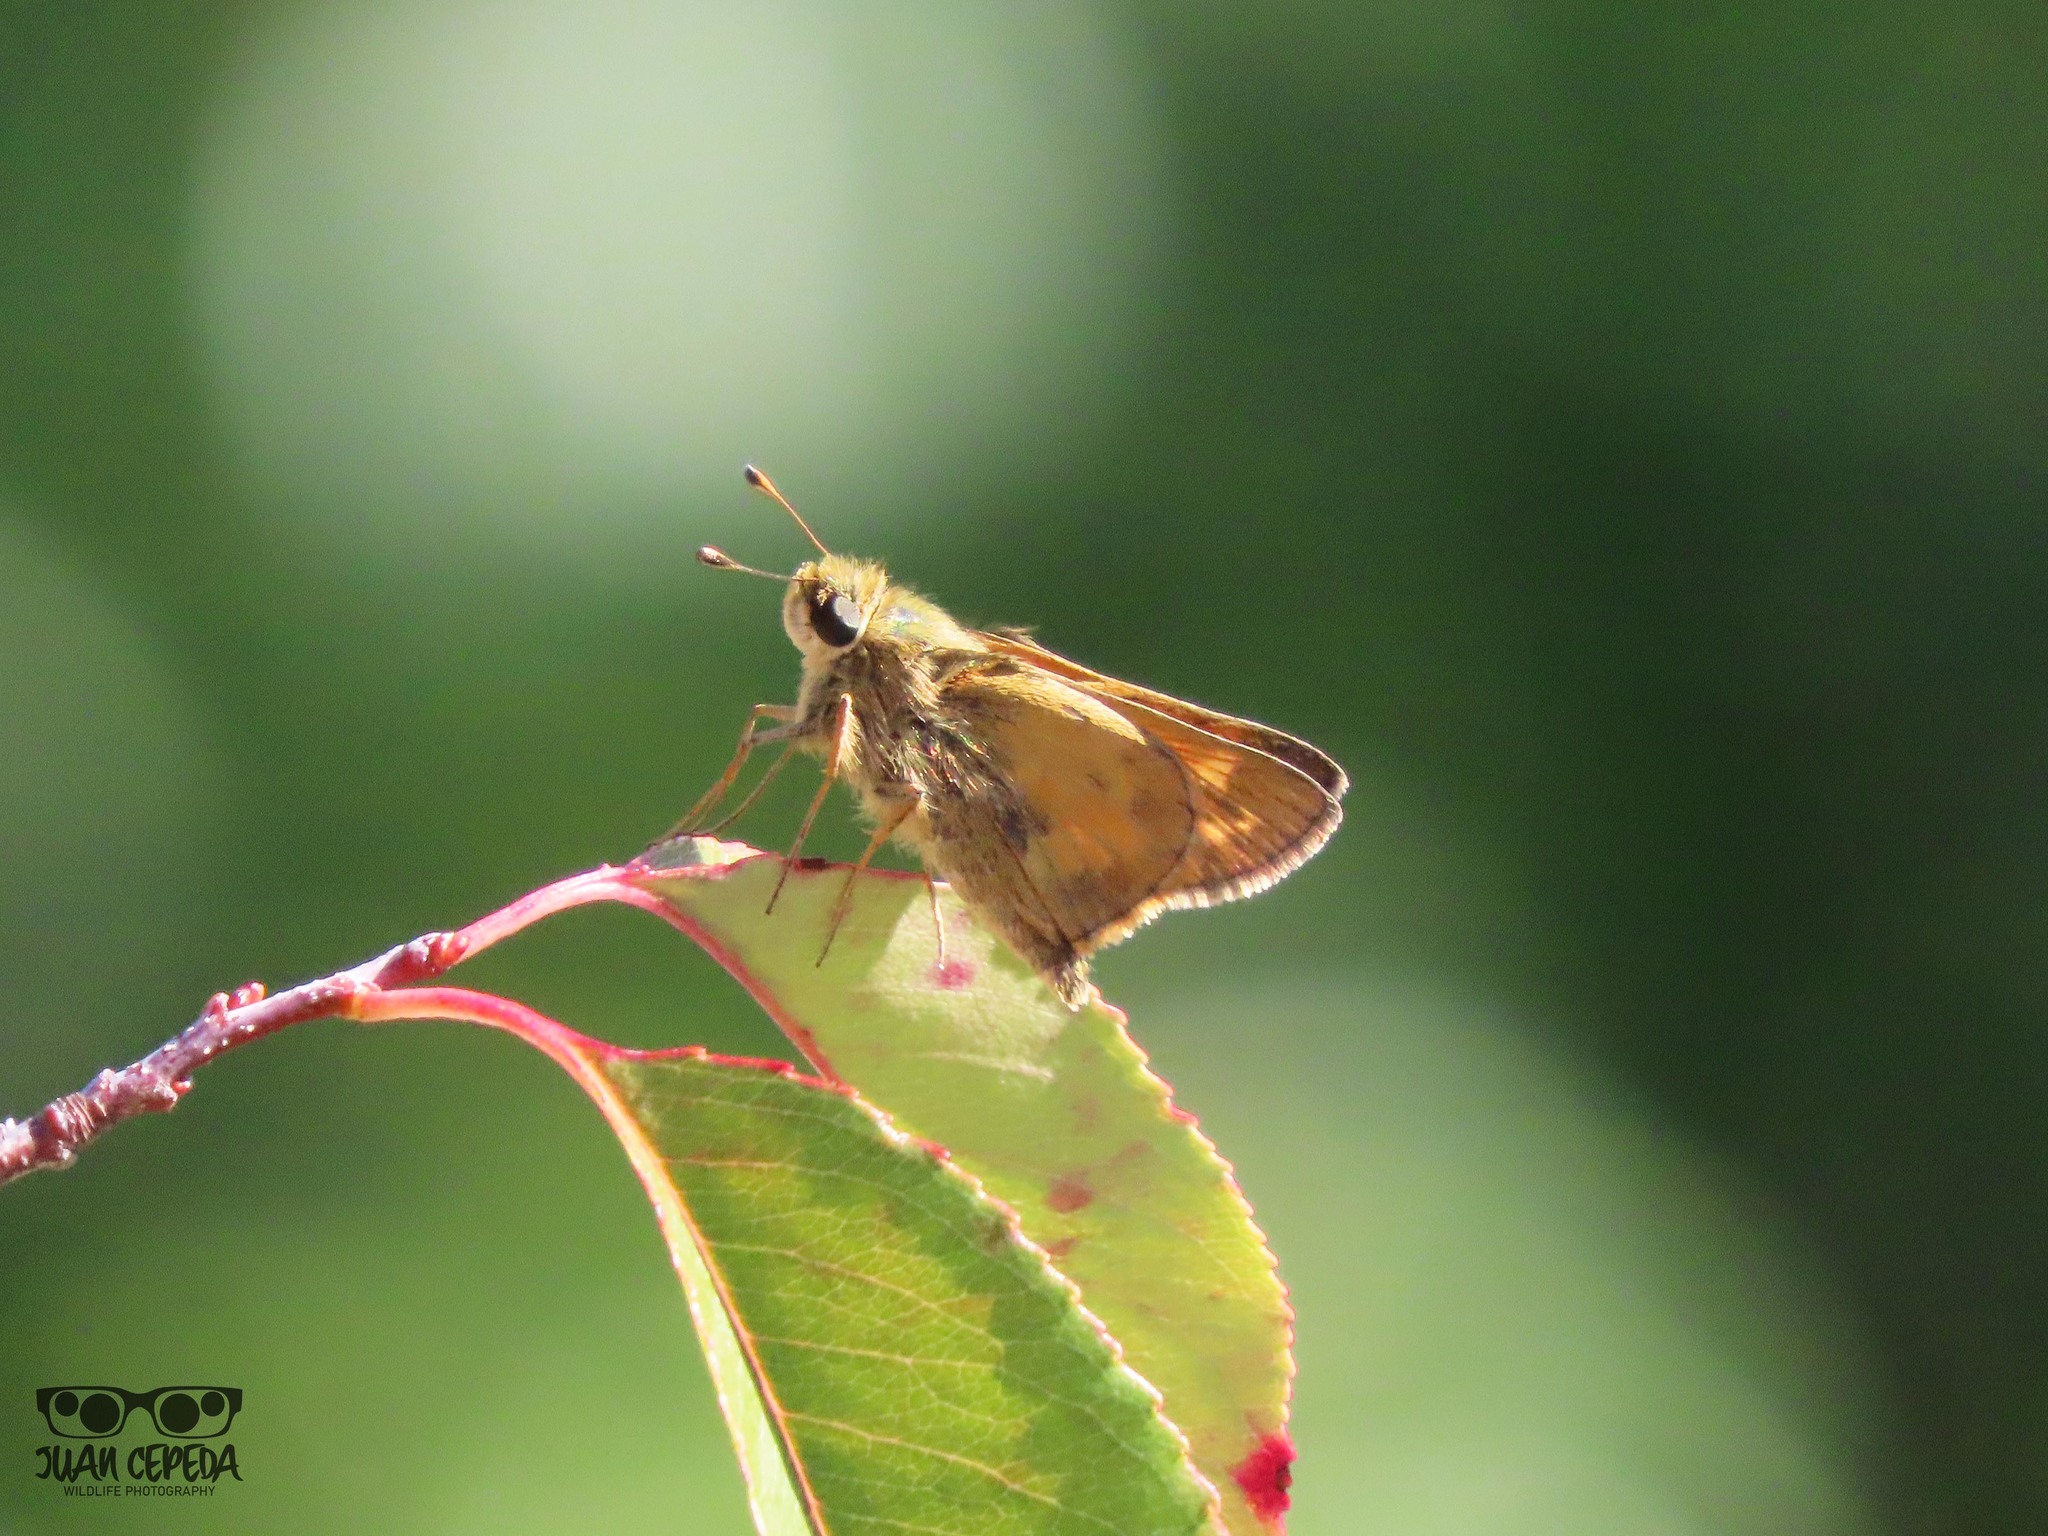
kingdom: Animalia
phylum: Arthropoda
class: Insecta
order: Lepidoptera
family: Hesperiidae
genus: Atalopedes
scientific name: Atalopedes
